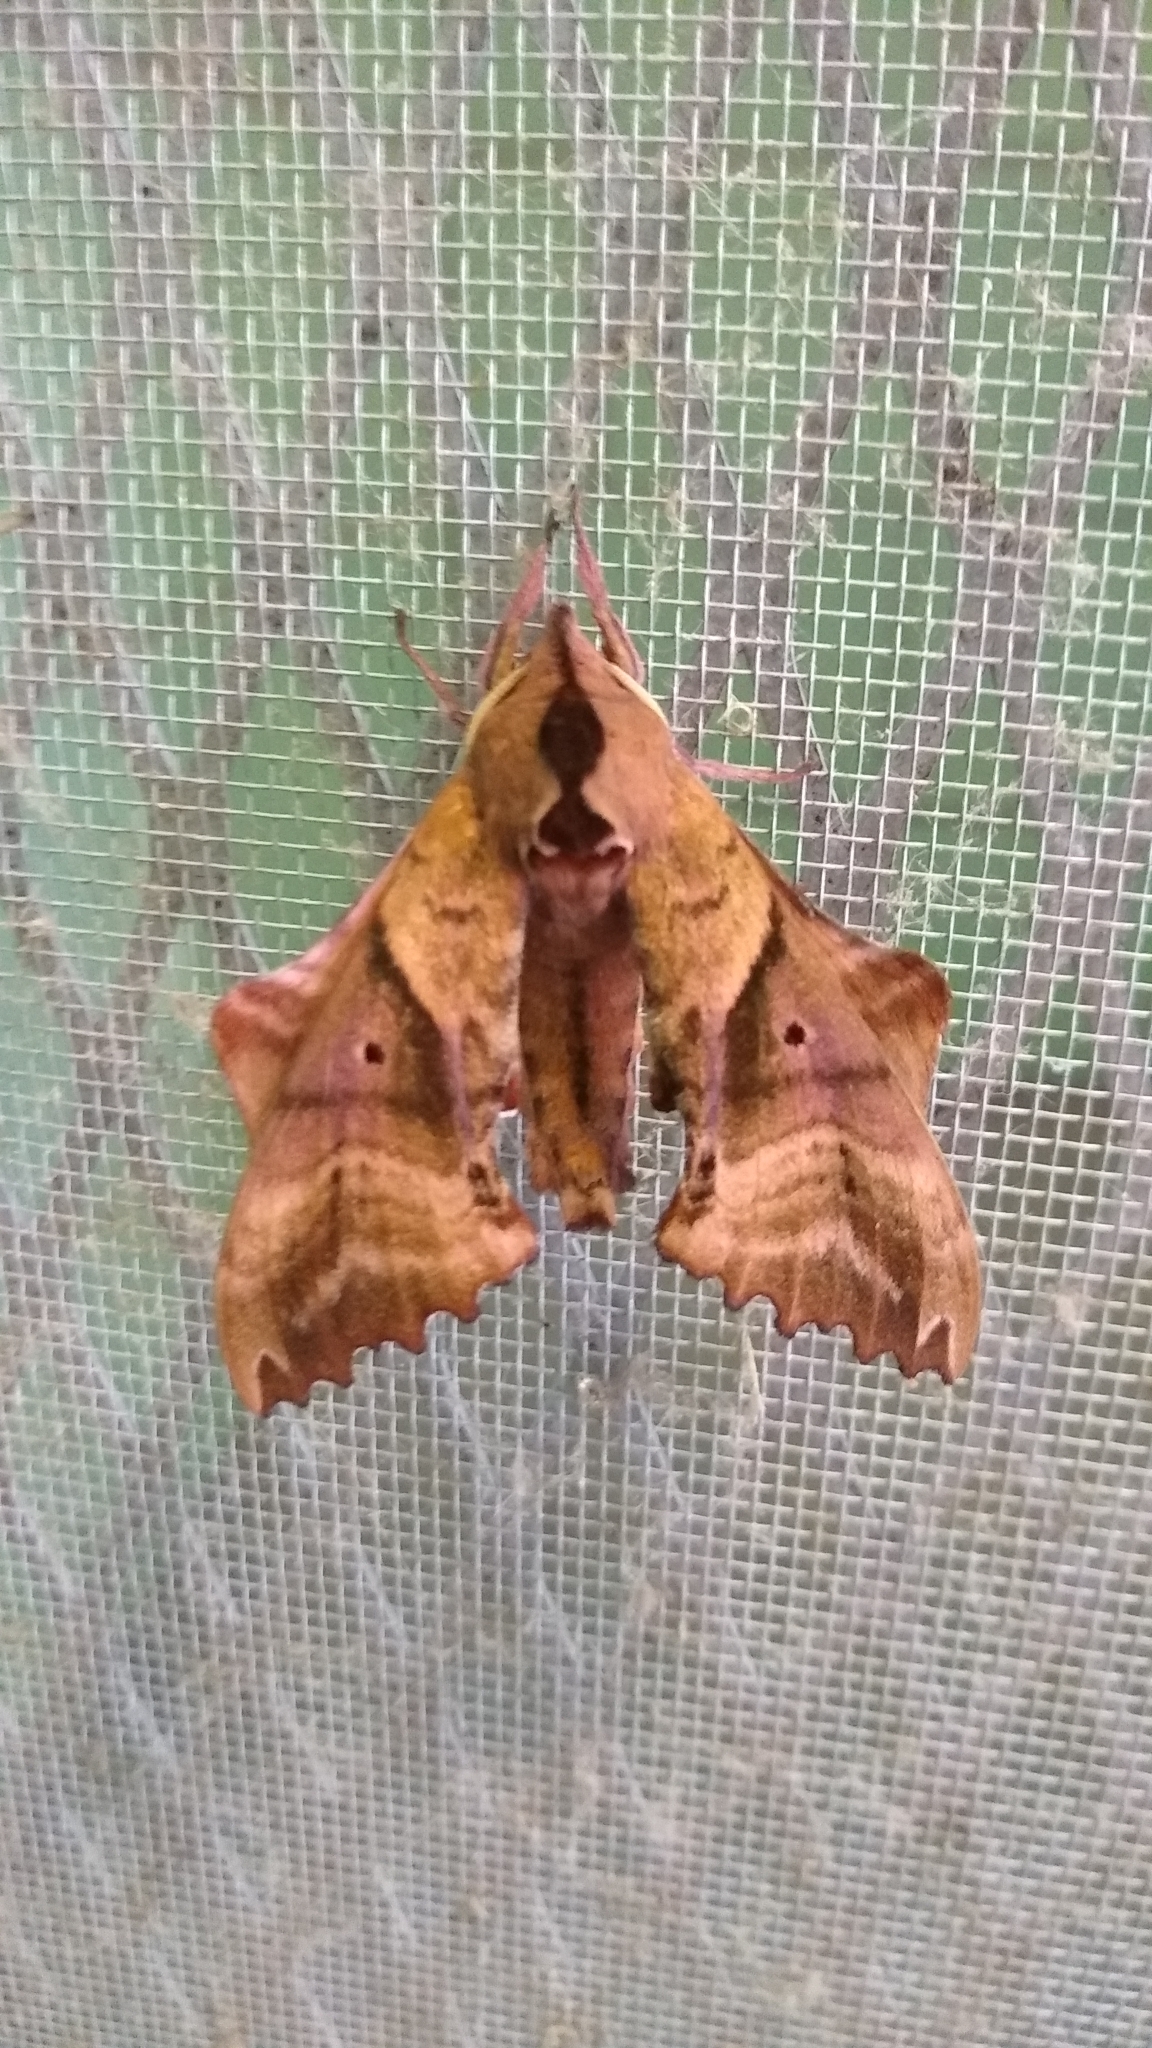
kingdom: Animalia
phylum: Arthropoda
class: Insecta
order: Lepidoptera
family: Sphingidae
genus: Paonias
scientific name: Paonias excaecata
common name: Blind-eyed sphinx
